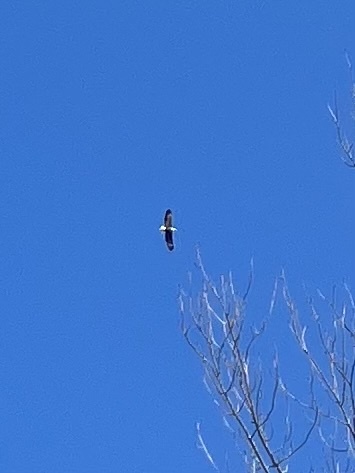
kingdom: Animalia
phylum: Chordata
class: Aves
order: Accipitriformes
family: Accipitridae
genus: Haliaeetus
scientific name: Haliaeetus leucocephalus
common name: Bald eagle
